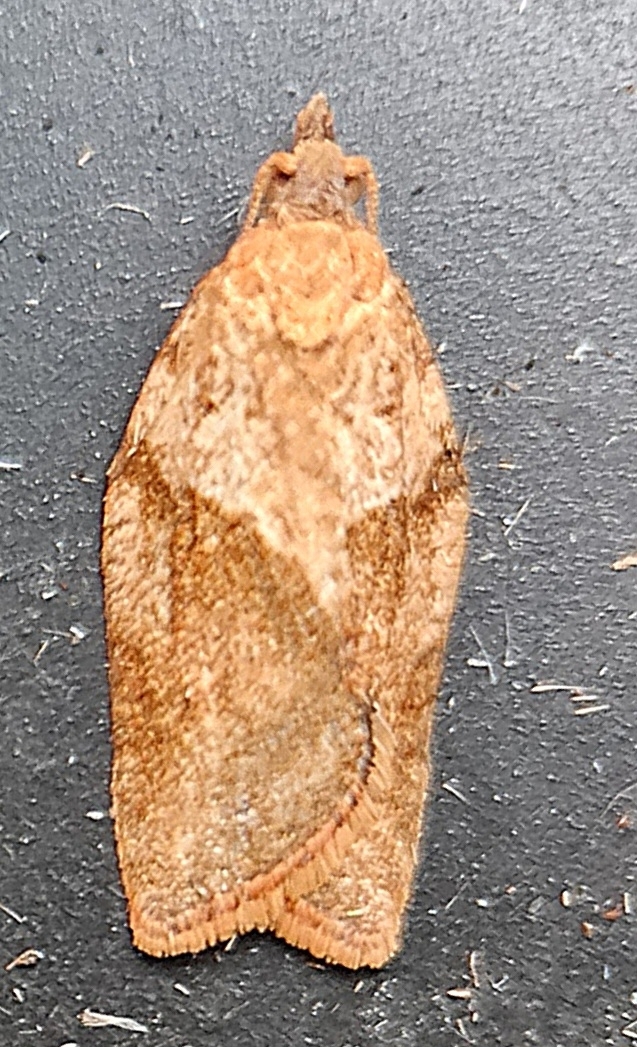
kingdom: Animalia
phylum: Arthropoda
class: Insecta
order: Lepidoptera
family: Tortricidae
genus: Epiphyas
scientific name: Epiphyas postvittana
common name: Light brown apple moth
